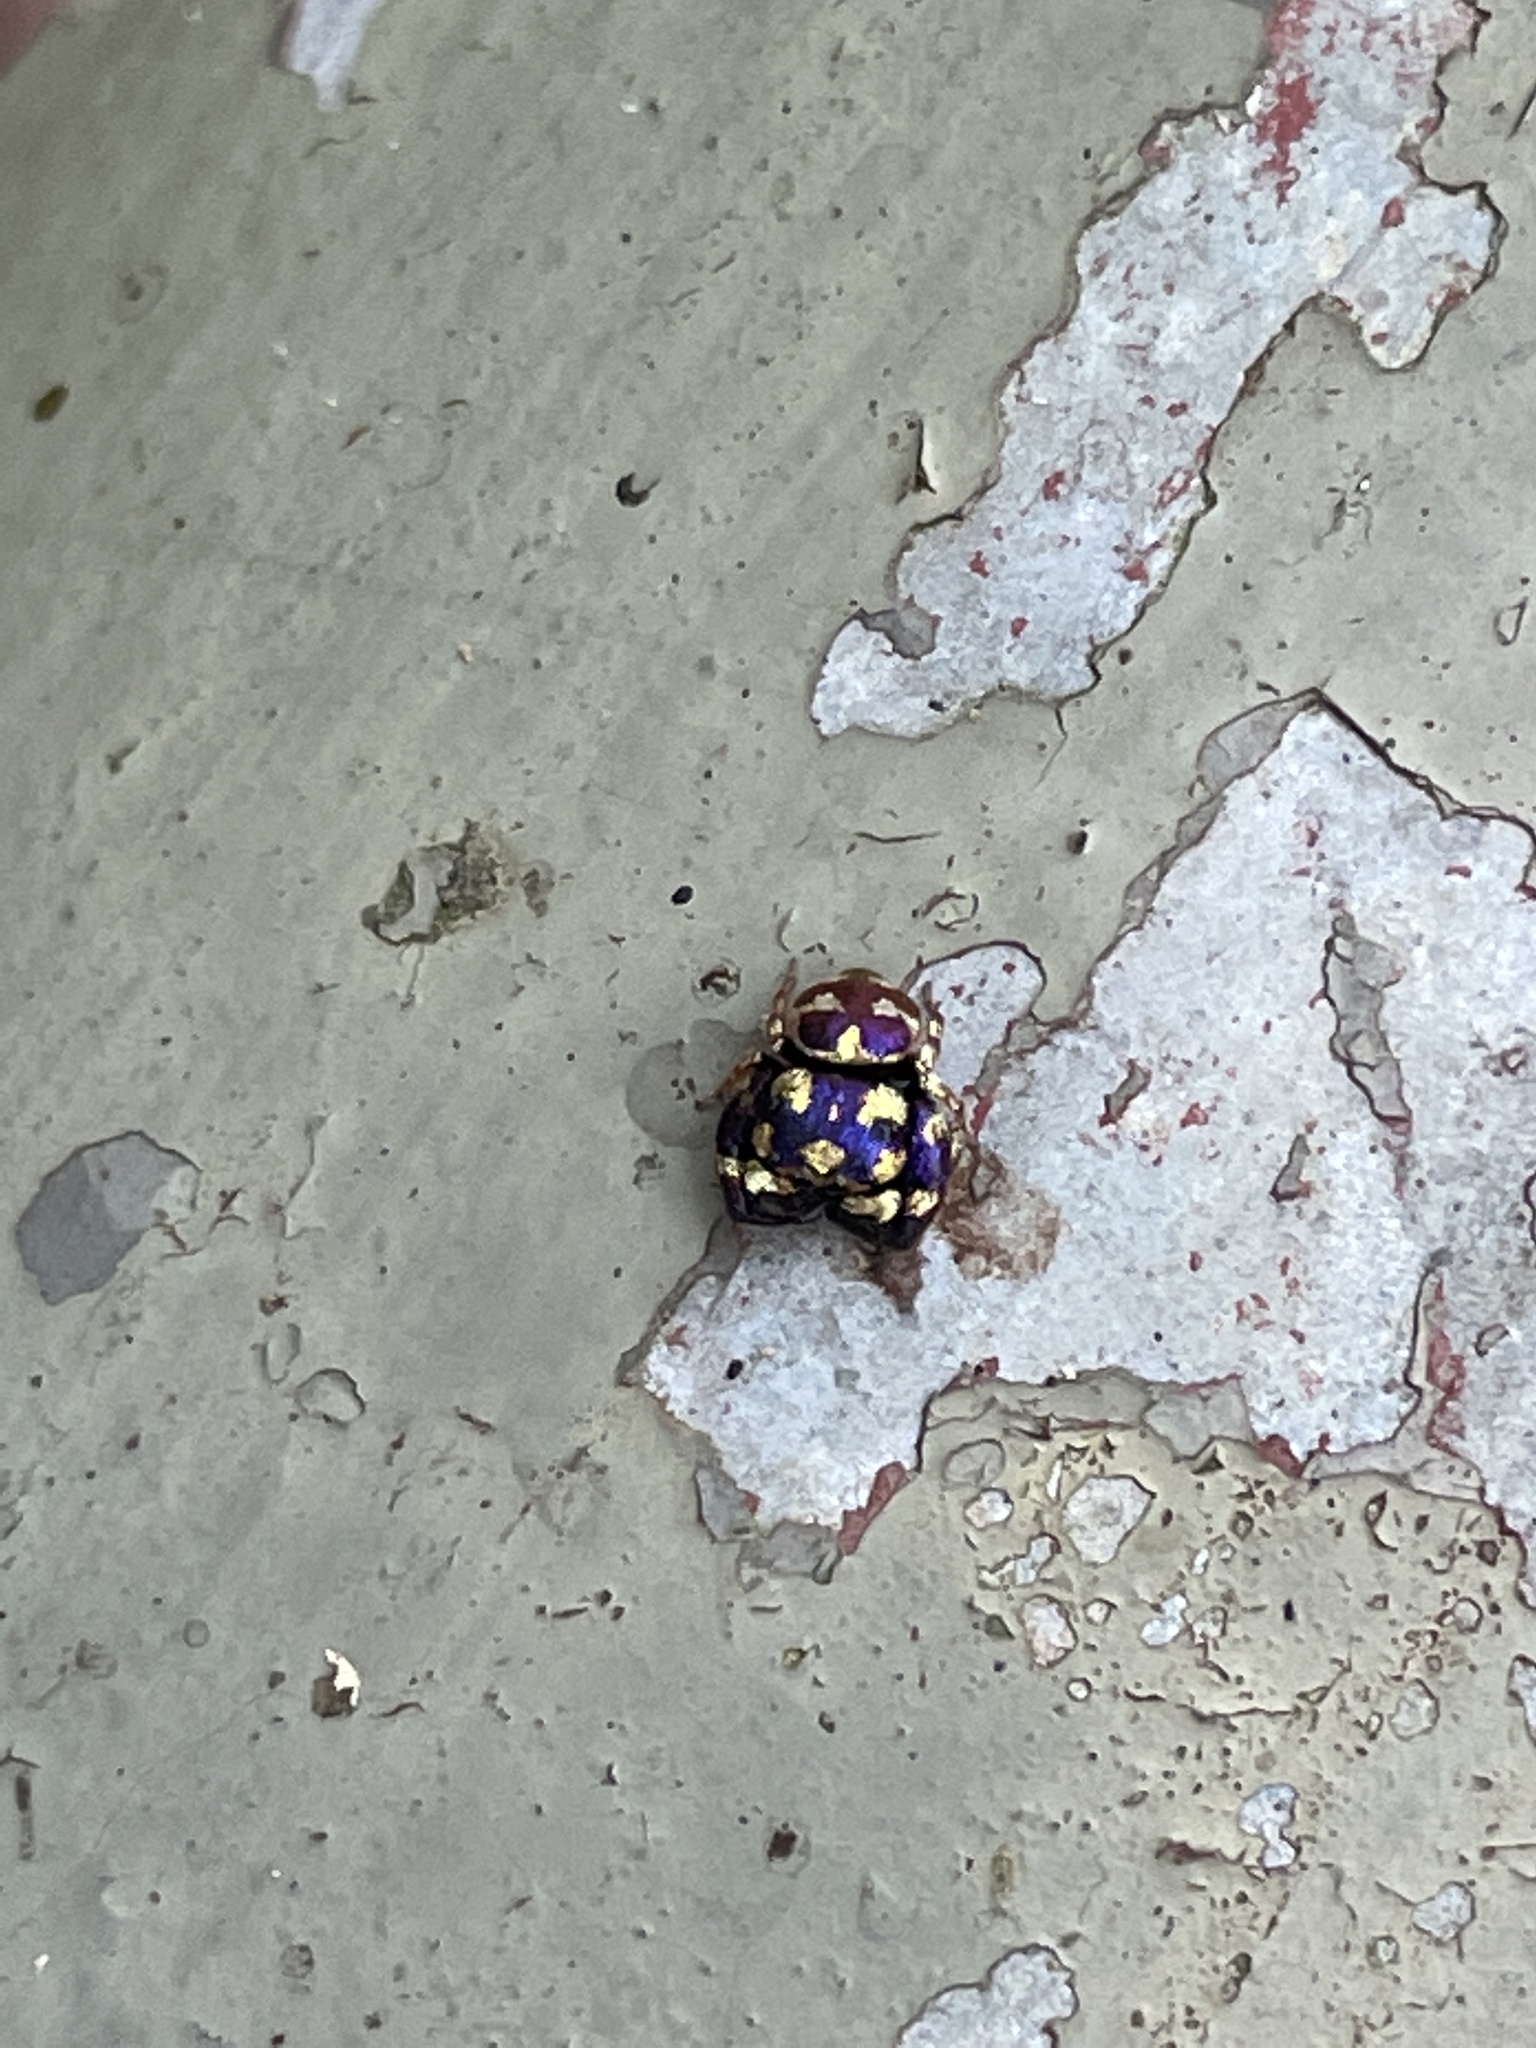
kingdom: Animalia
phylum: Arthropoda
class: Arachnida
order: Araneae
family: Salticidae
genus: Irura
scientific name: Irura bidenticulata
